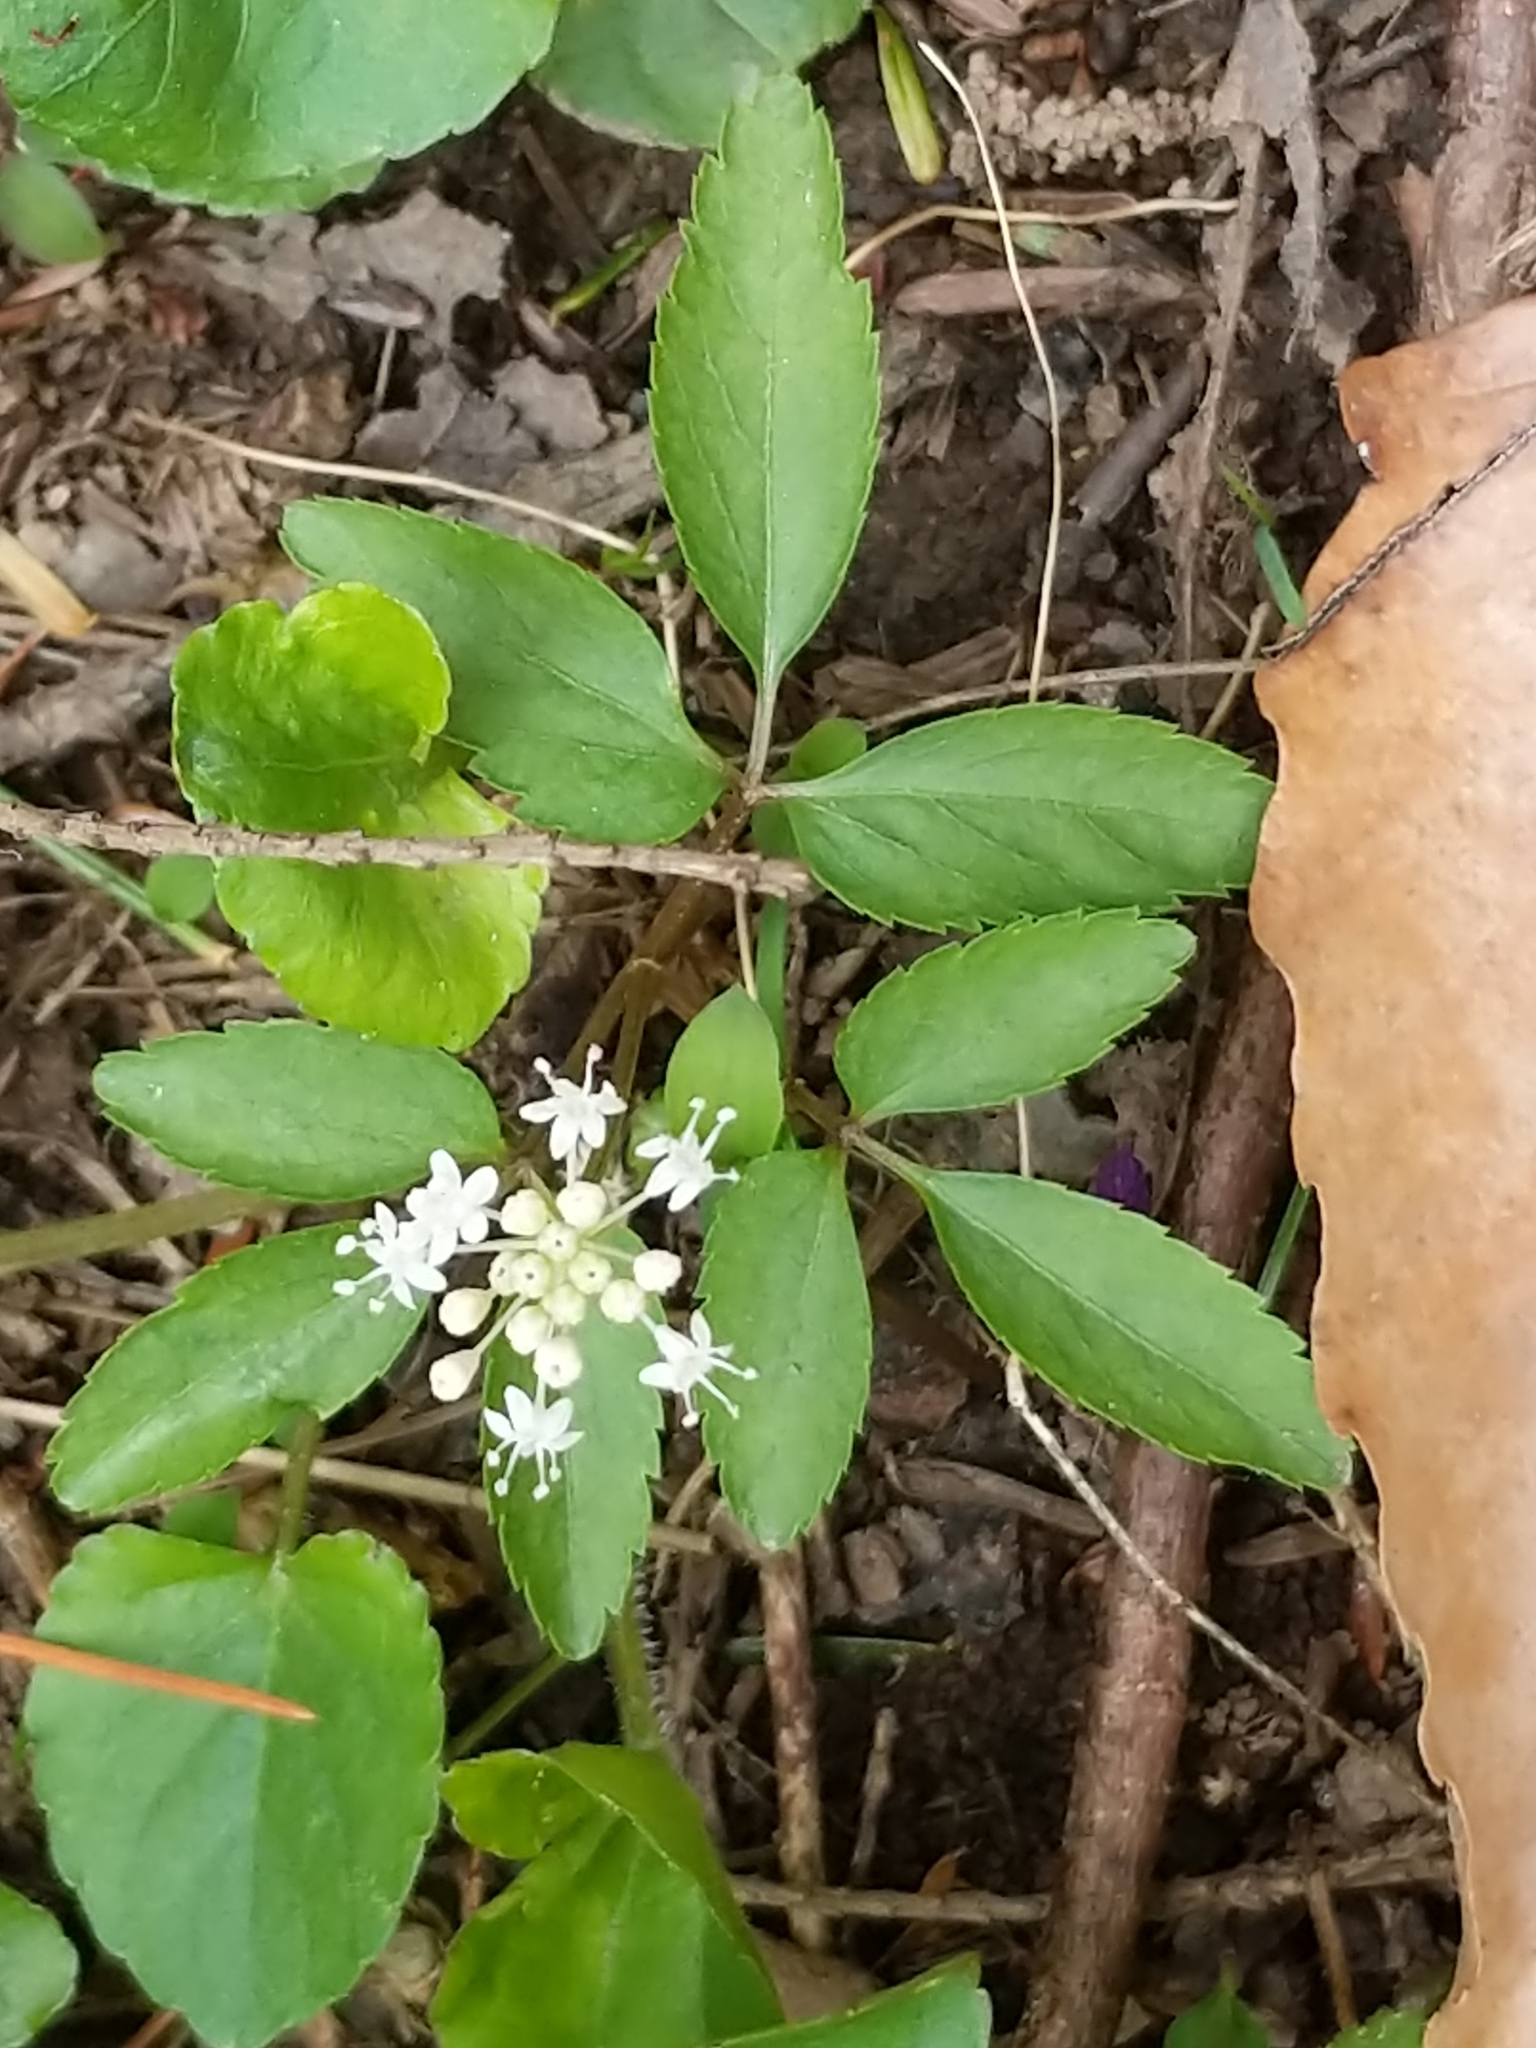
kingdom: Plantae
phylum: Tracheophyta
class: Magnoliopsida
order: Apiales
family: Araliaceae
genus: Panax
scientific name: Panax trifolius
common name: Dwarf ginseng
